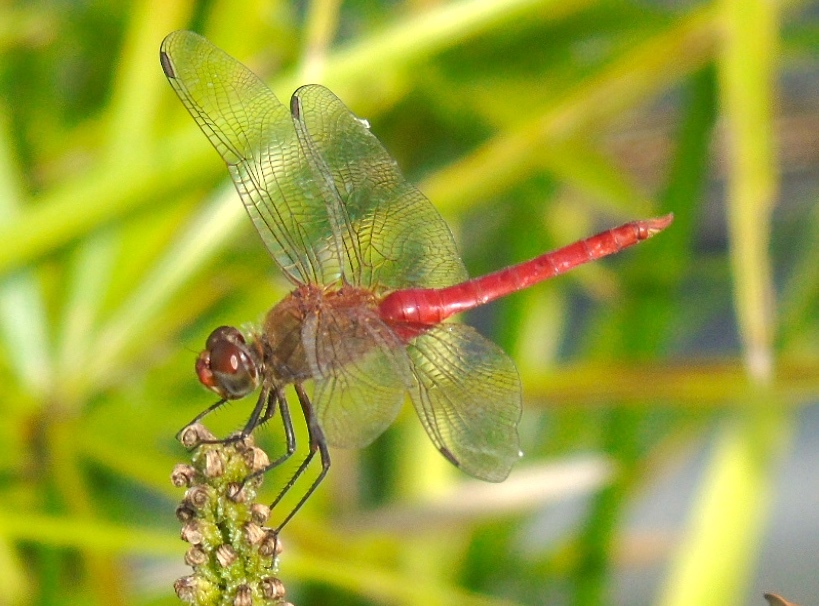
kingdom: Animalia
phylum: Arthropoda
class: Insecta
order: Odonata
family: Libellulidae
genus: Brachymesia
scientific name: Brachymesia furcata
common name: Red-taled pennant
